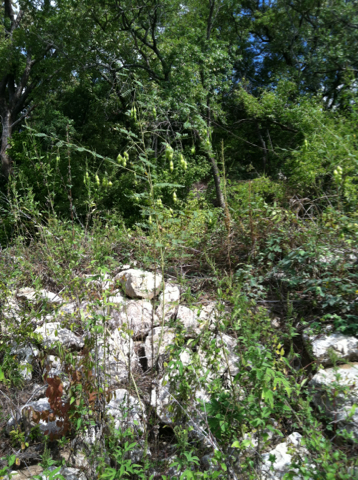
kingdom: Plantae
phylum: Tracheophyta
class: Magnoliopsida
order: Fabales
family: Fabaceae
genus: Sesbania
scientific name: Sesbania vesicaria
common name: Bagpod
